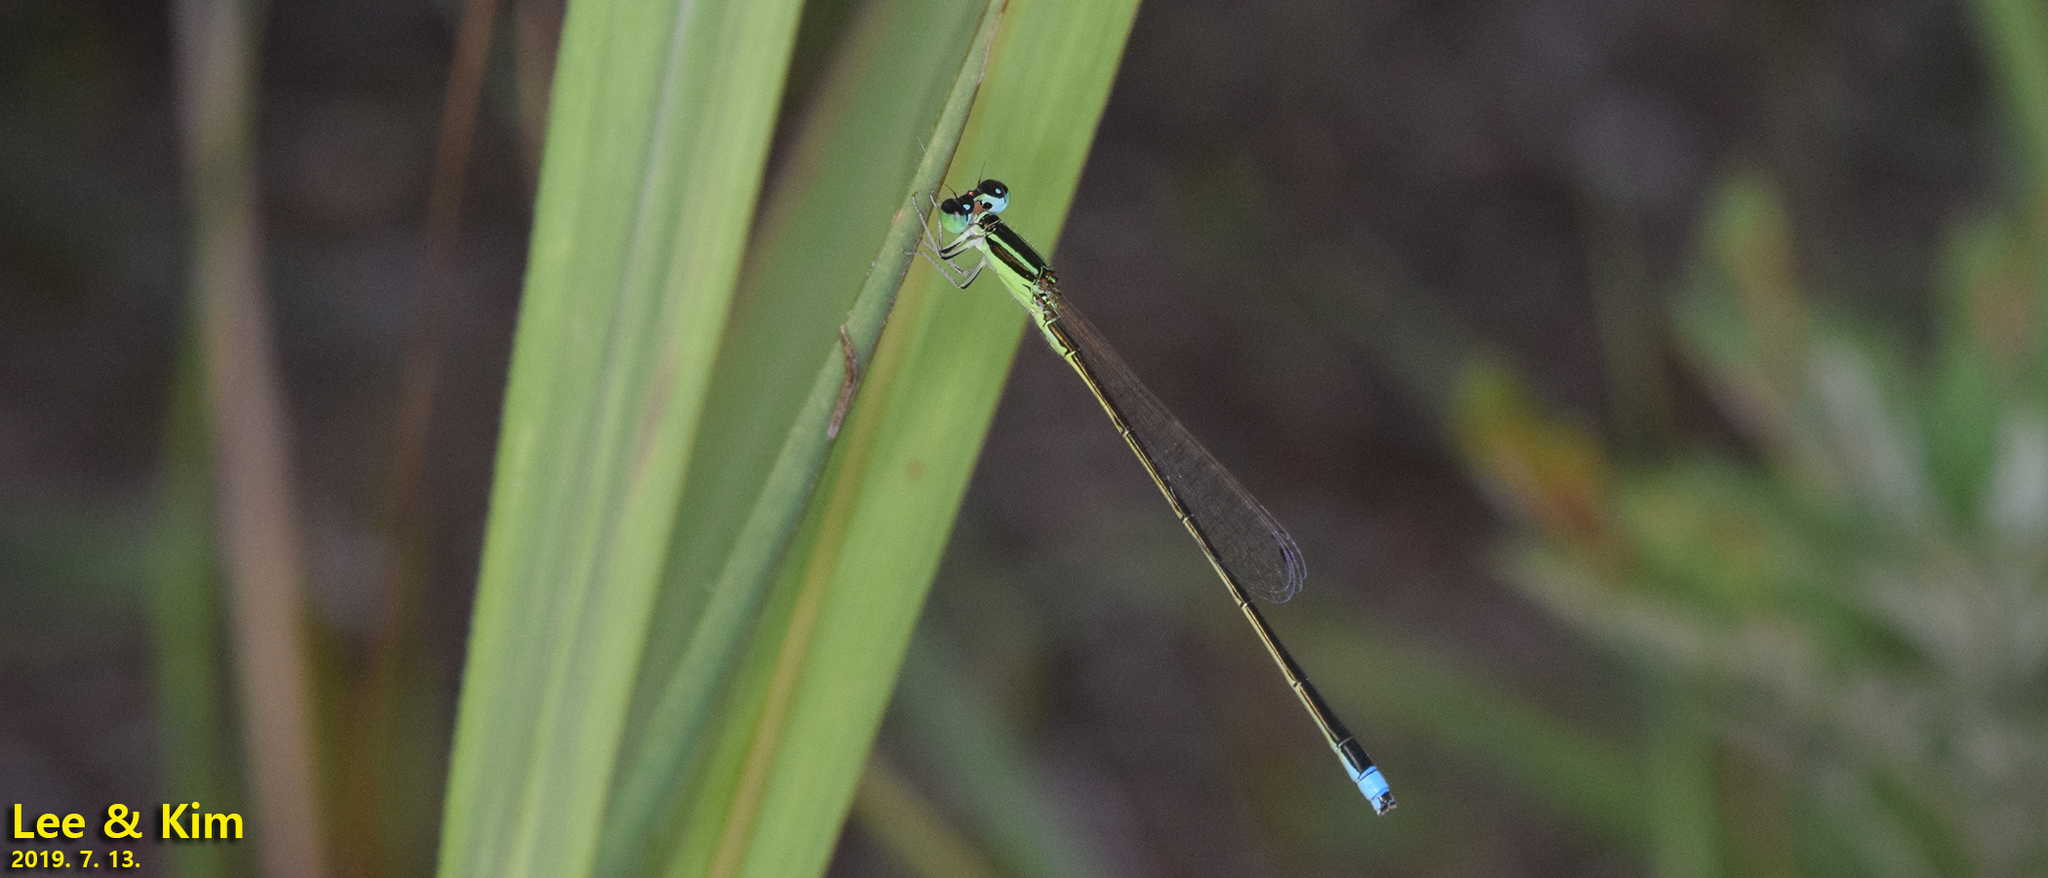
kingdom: Animalia
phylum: Arthropoda
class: Insecta
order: Odonata
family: Coenagrionidae
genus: Ischnura
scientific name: Ischnura asiatica
